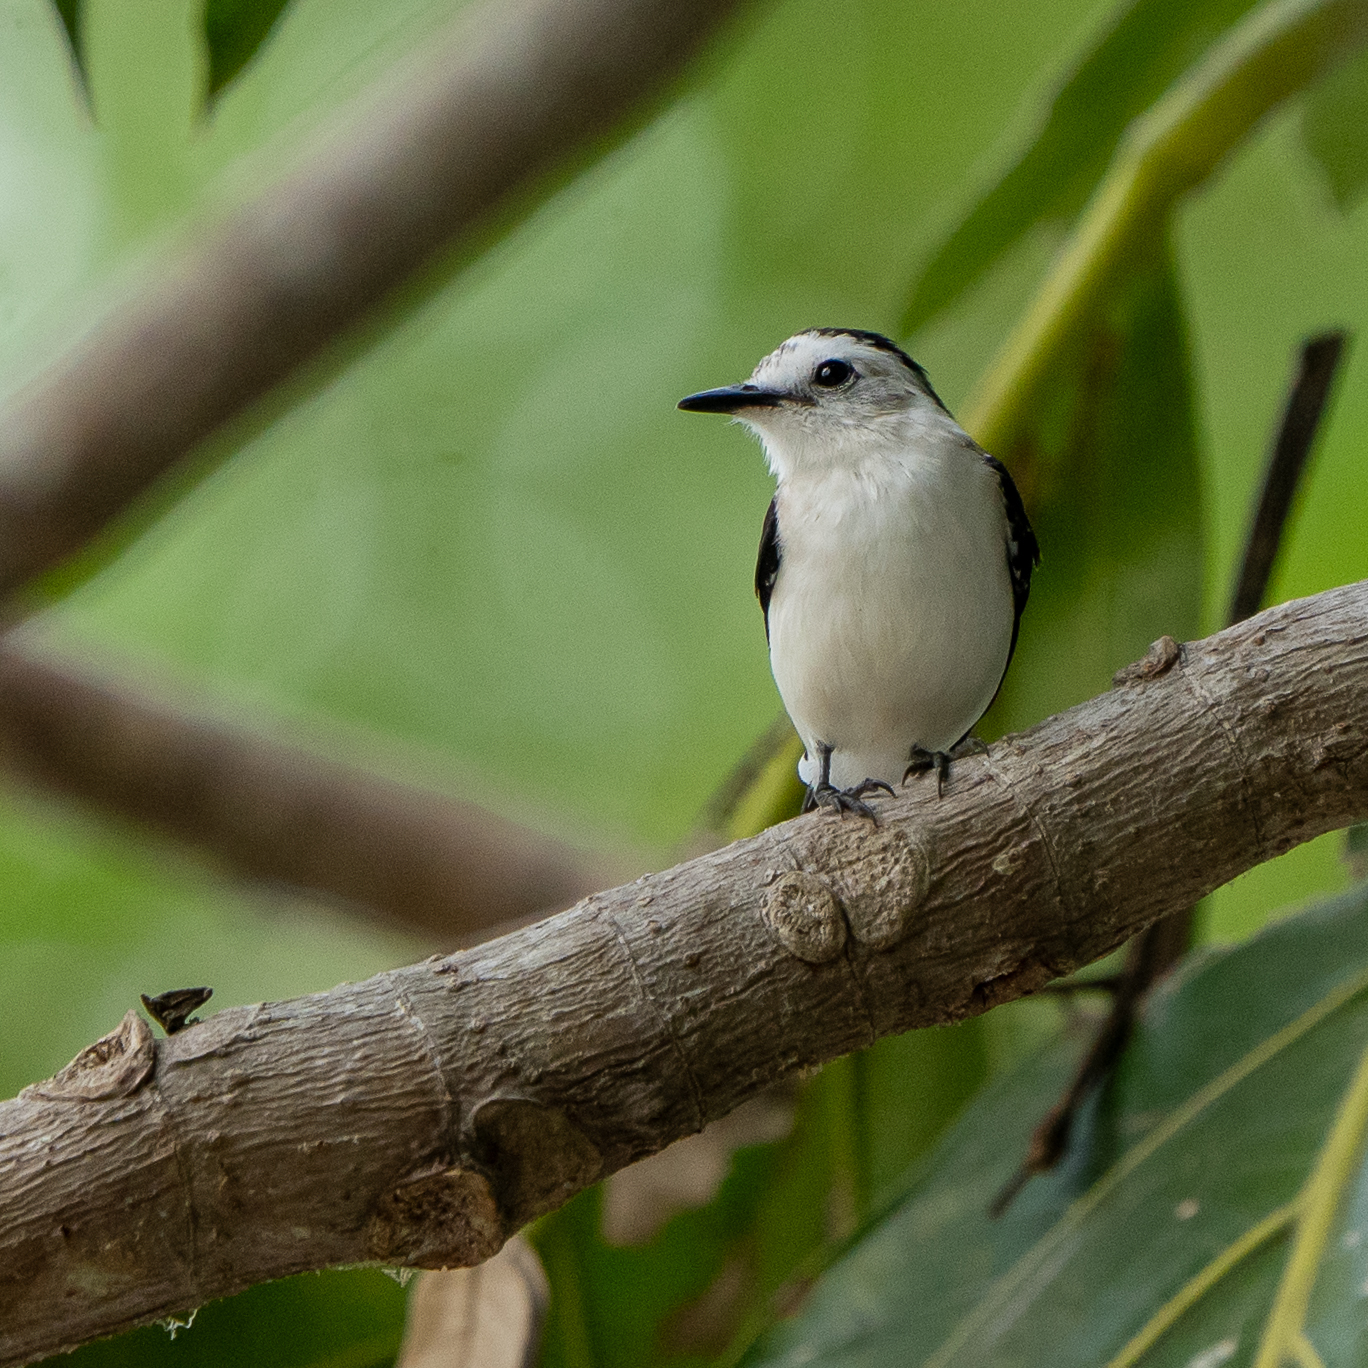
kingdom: Animalia
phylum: Chordata
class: Aves
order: Passeriformes
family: Tyrannidae
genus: Fluvicola
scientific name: Fluvicola pica
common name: Pied water-tyrant
